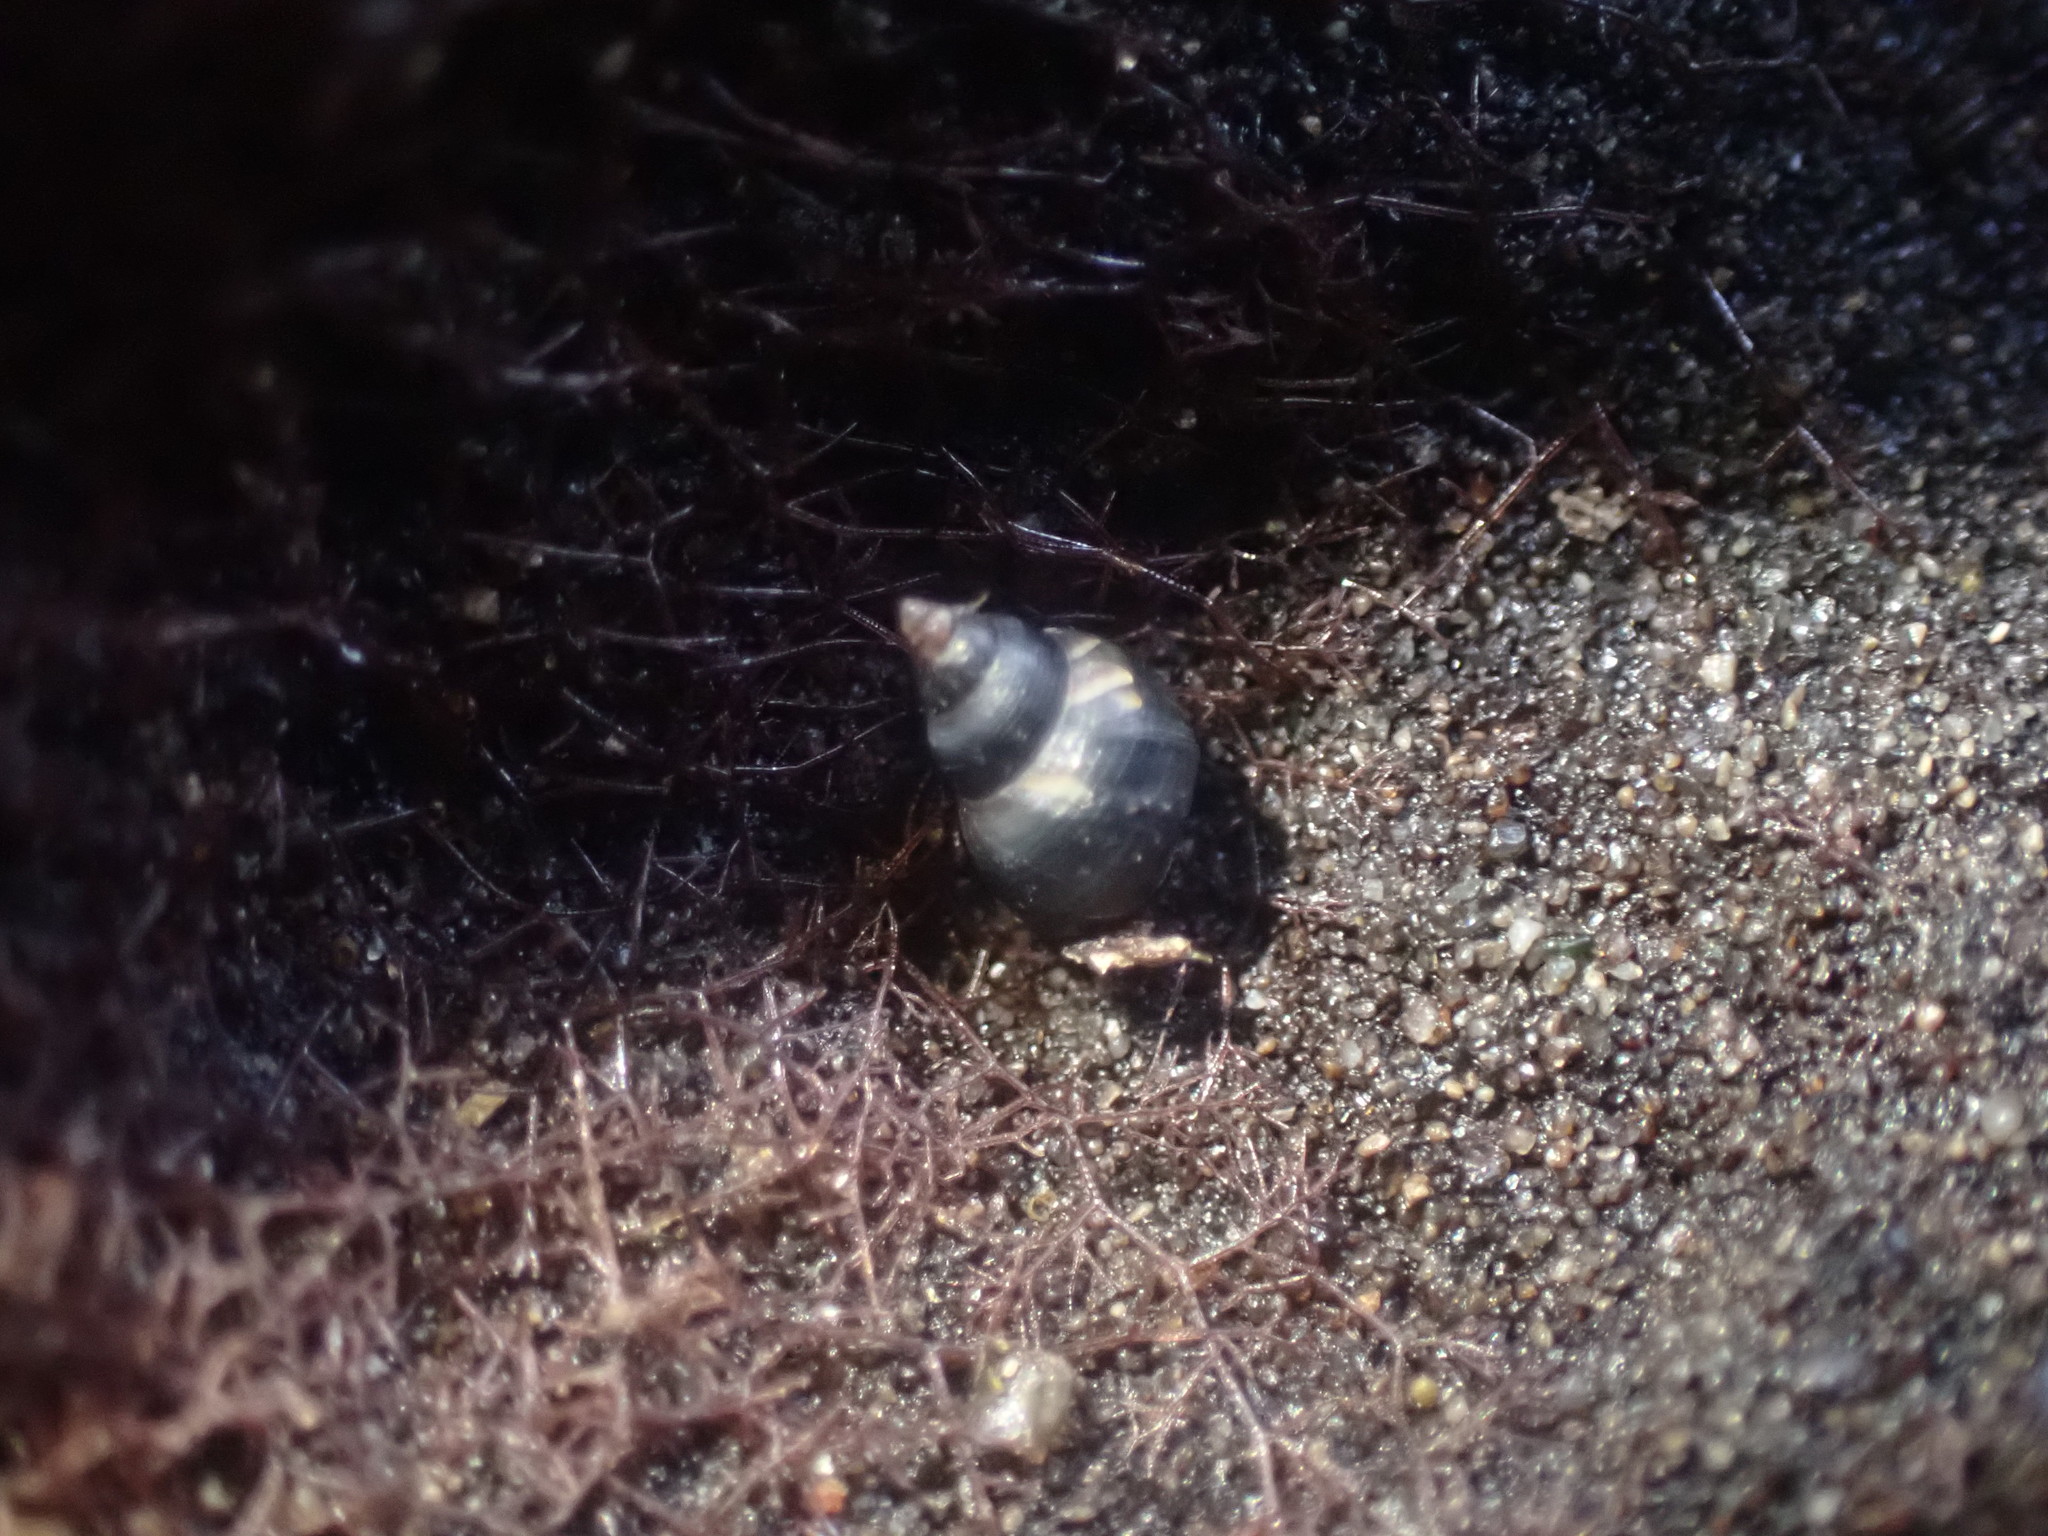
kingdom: Animalia
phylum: Mollusca
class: Gastropoda
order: Littorinimorpha
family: Littorinidae
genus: Austrolittorina
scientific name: Austrolittorina antipodum
